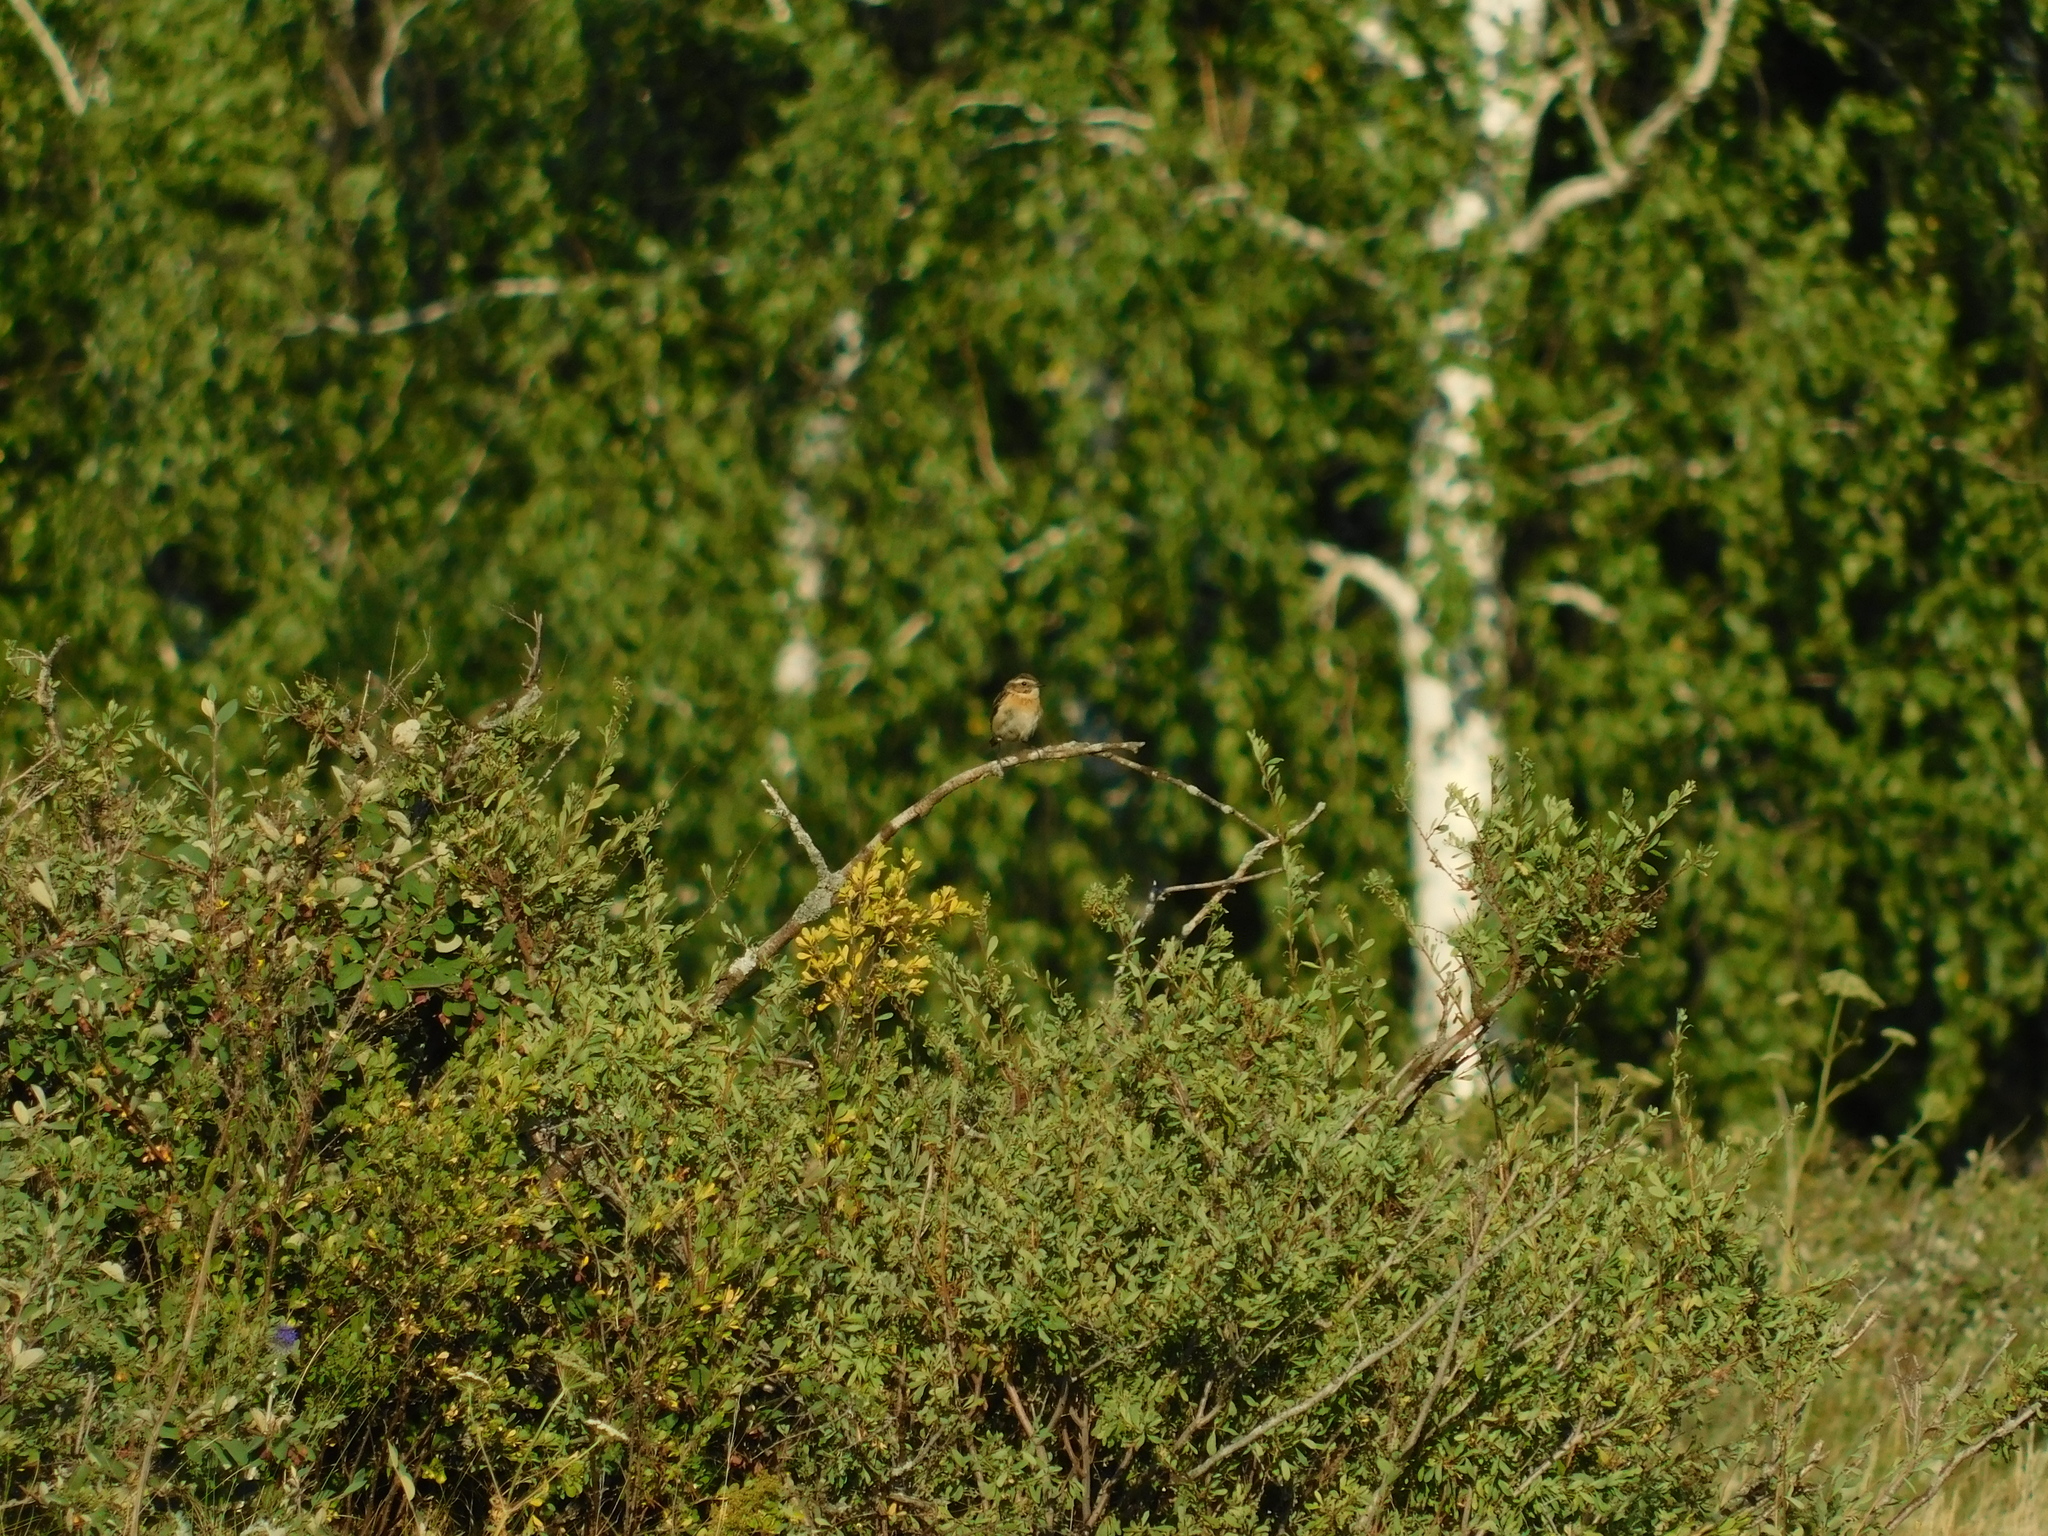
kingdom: Animalia
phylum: Chordata
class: Aves
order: Passeriformes
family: Muscicapidae
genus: Saxicola
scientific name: Saxicola rubetra
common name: Whinchat
